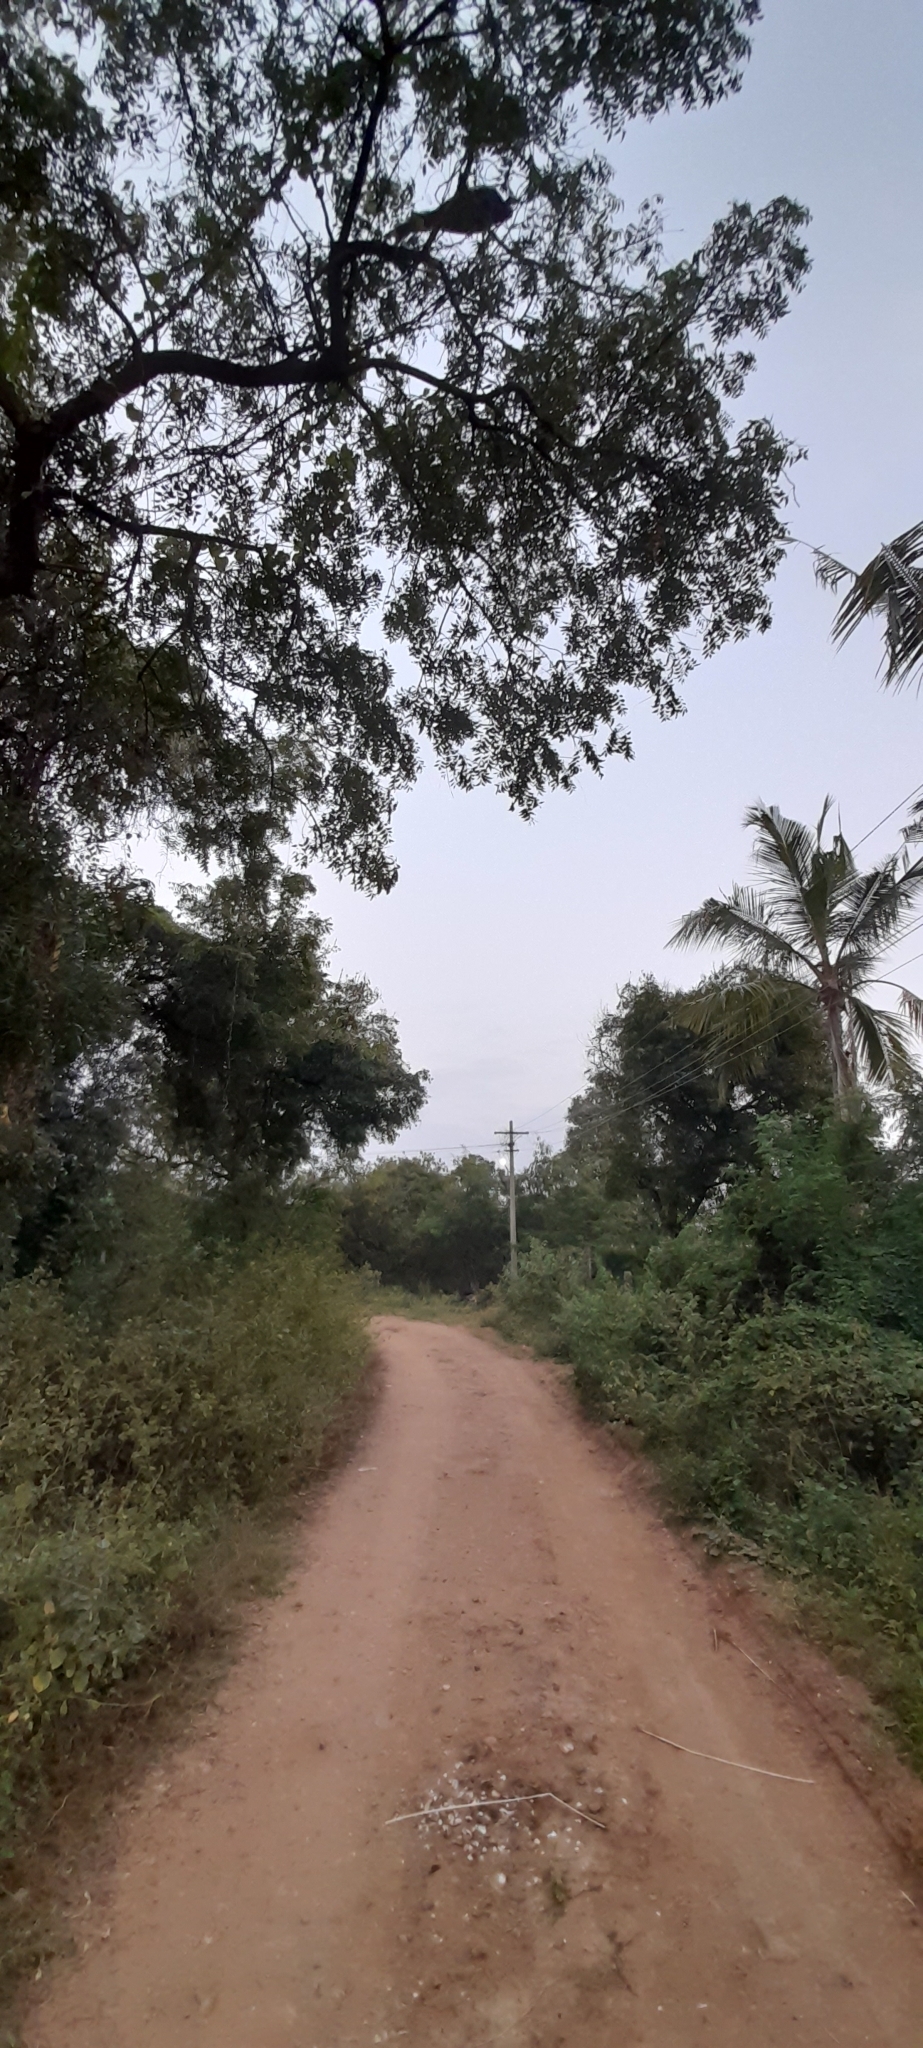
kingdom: Animalia
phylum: Chordata
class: Aves
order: Galliformes
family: Phasianidae
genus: Pavo
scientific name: Pavo cristatus
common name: Indian peafowl
